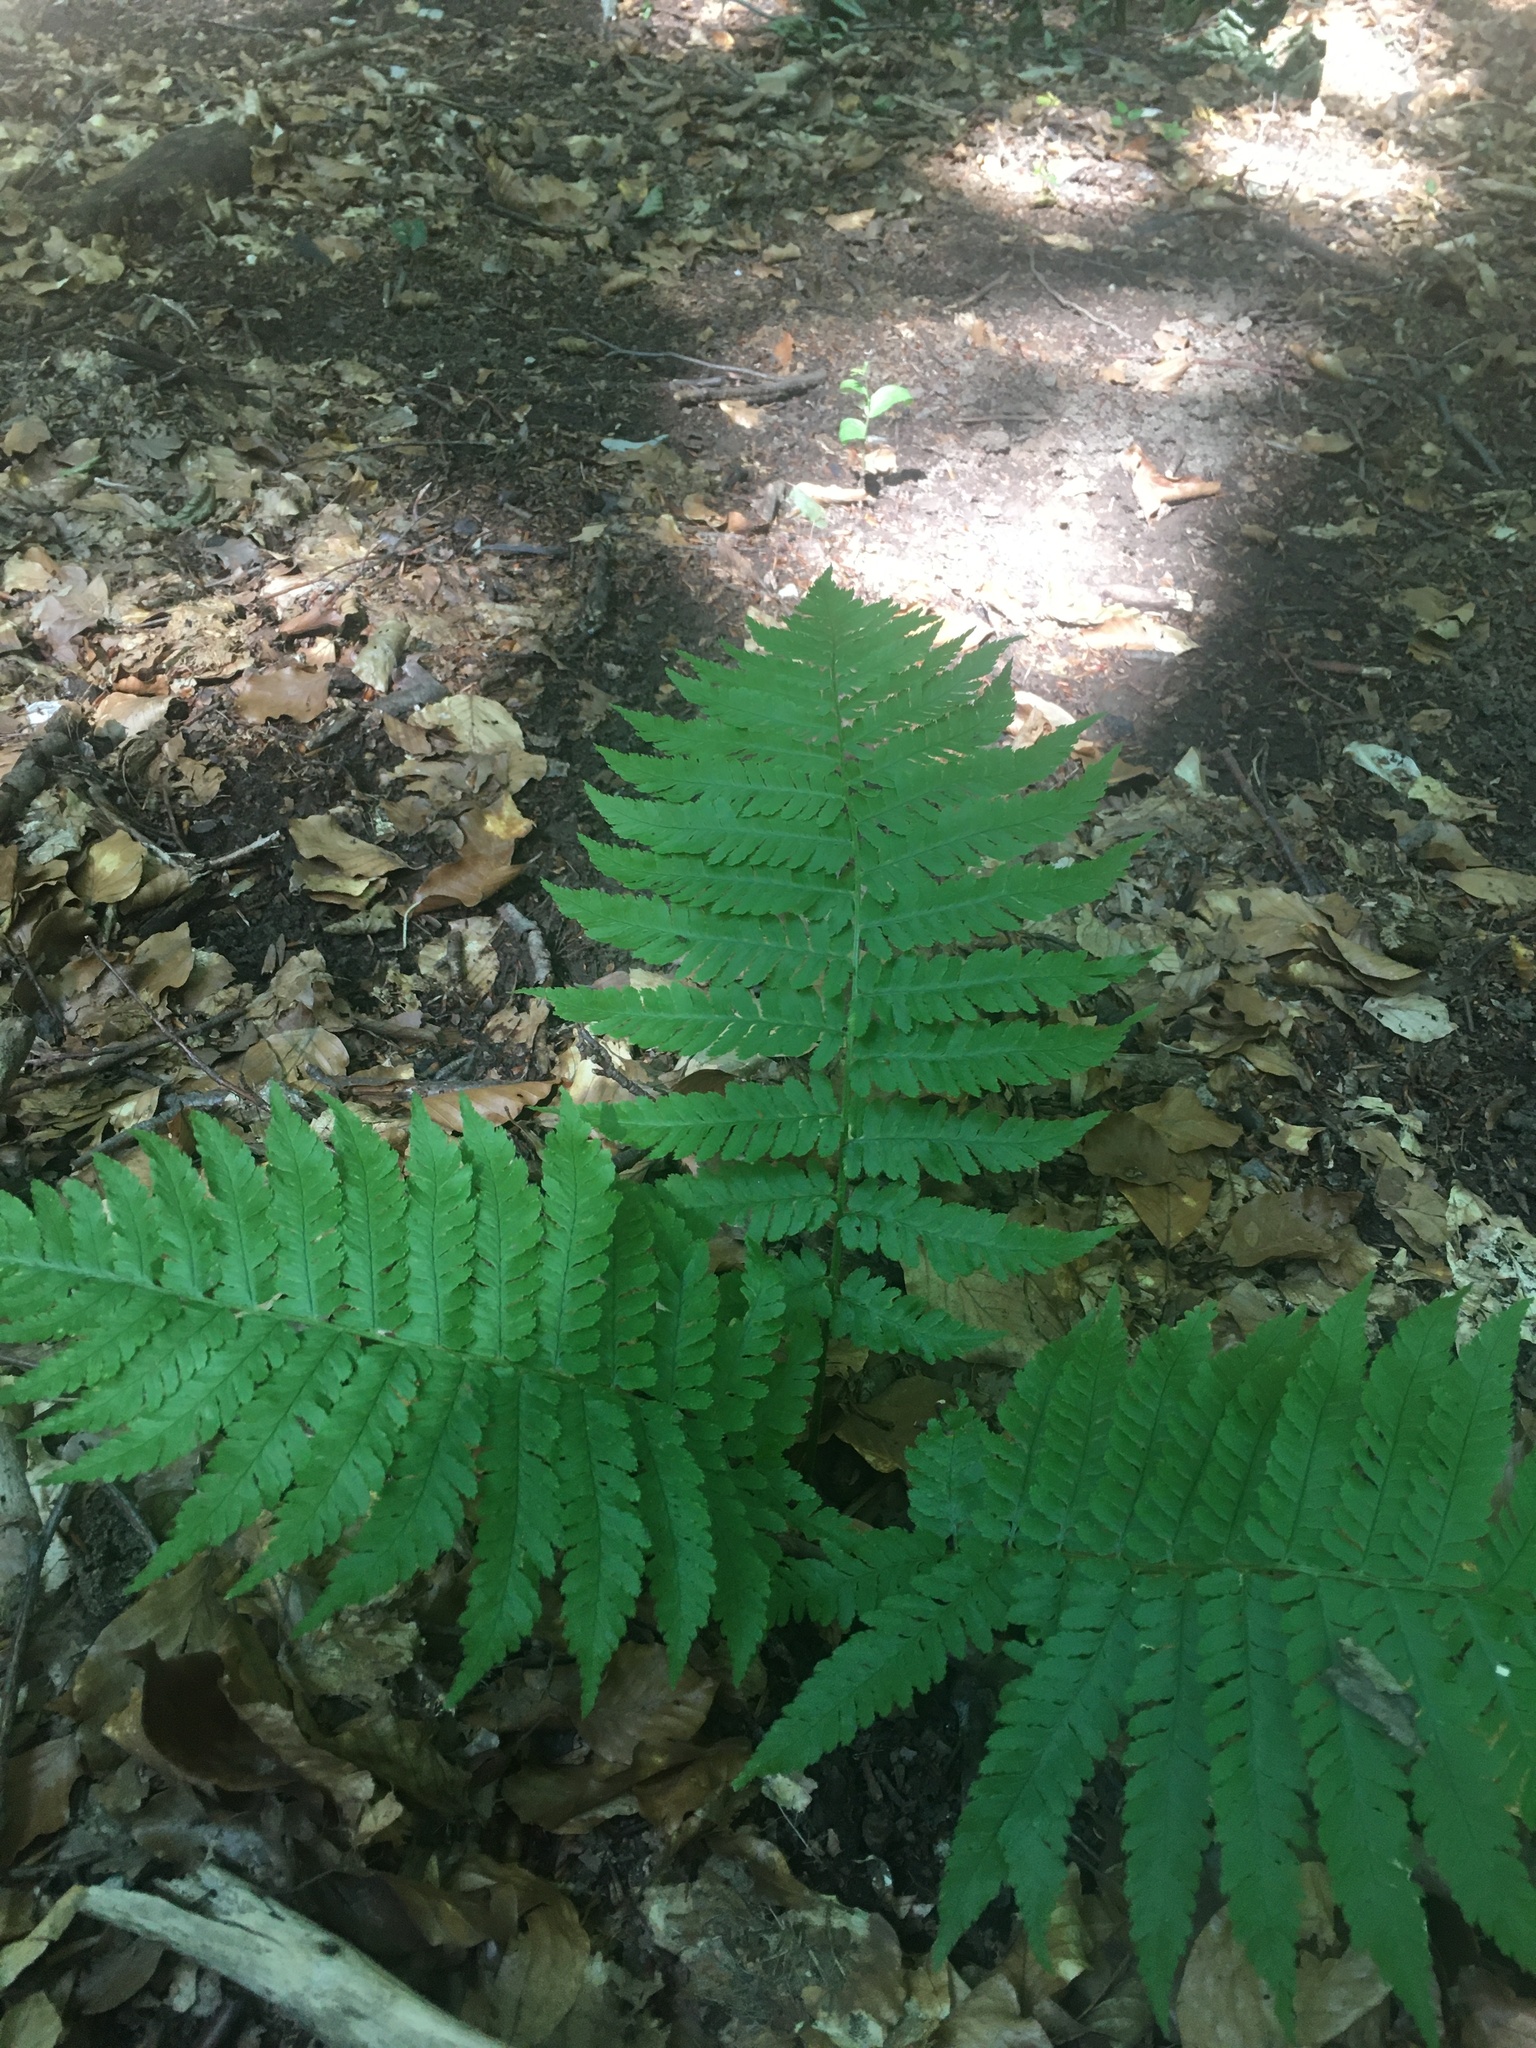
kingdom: Plantae
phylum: Tracheophyta
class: Polypodiopsida
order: Polypodiales
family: Dryopteridaceae
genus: Dryopteris
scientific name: Dryopteris filix-mas
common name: Male fern
